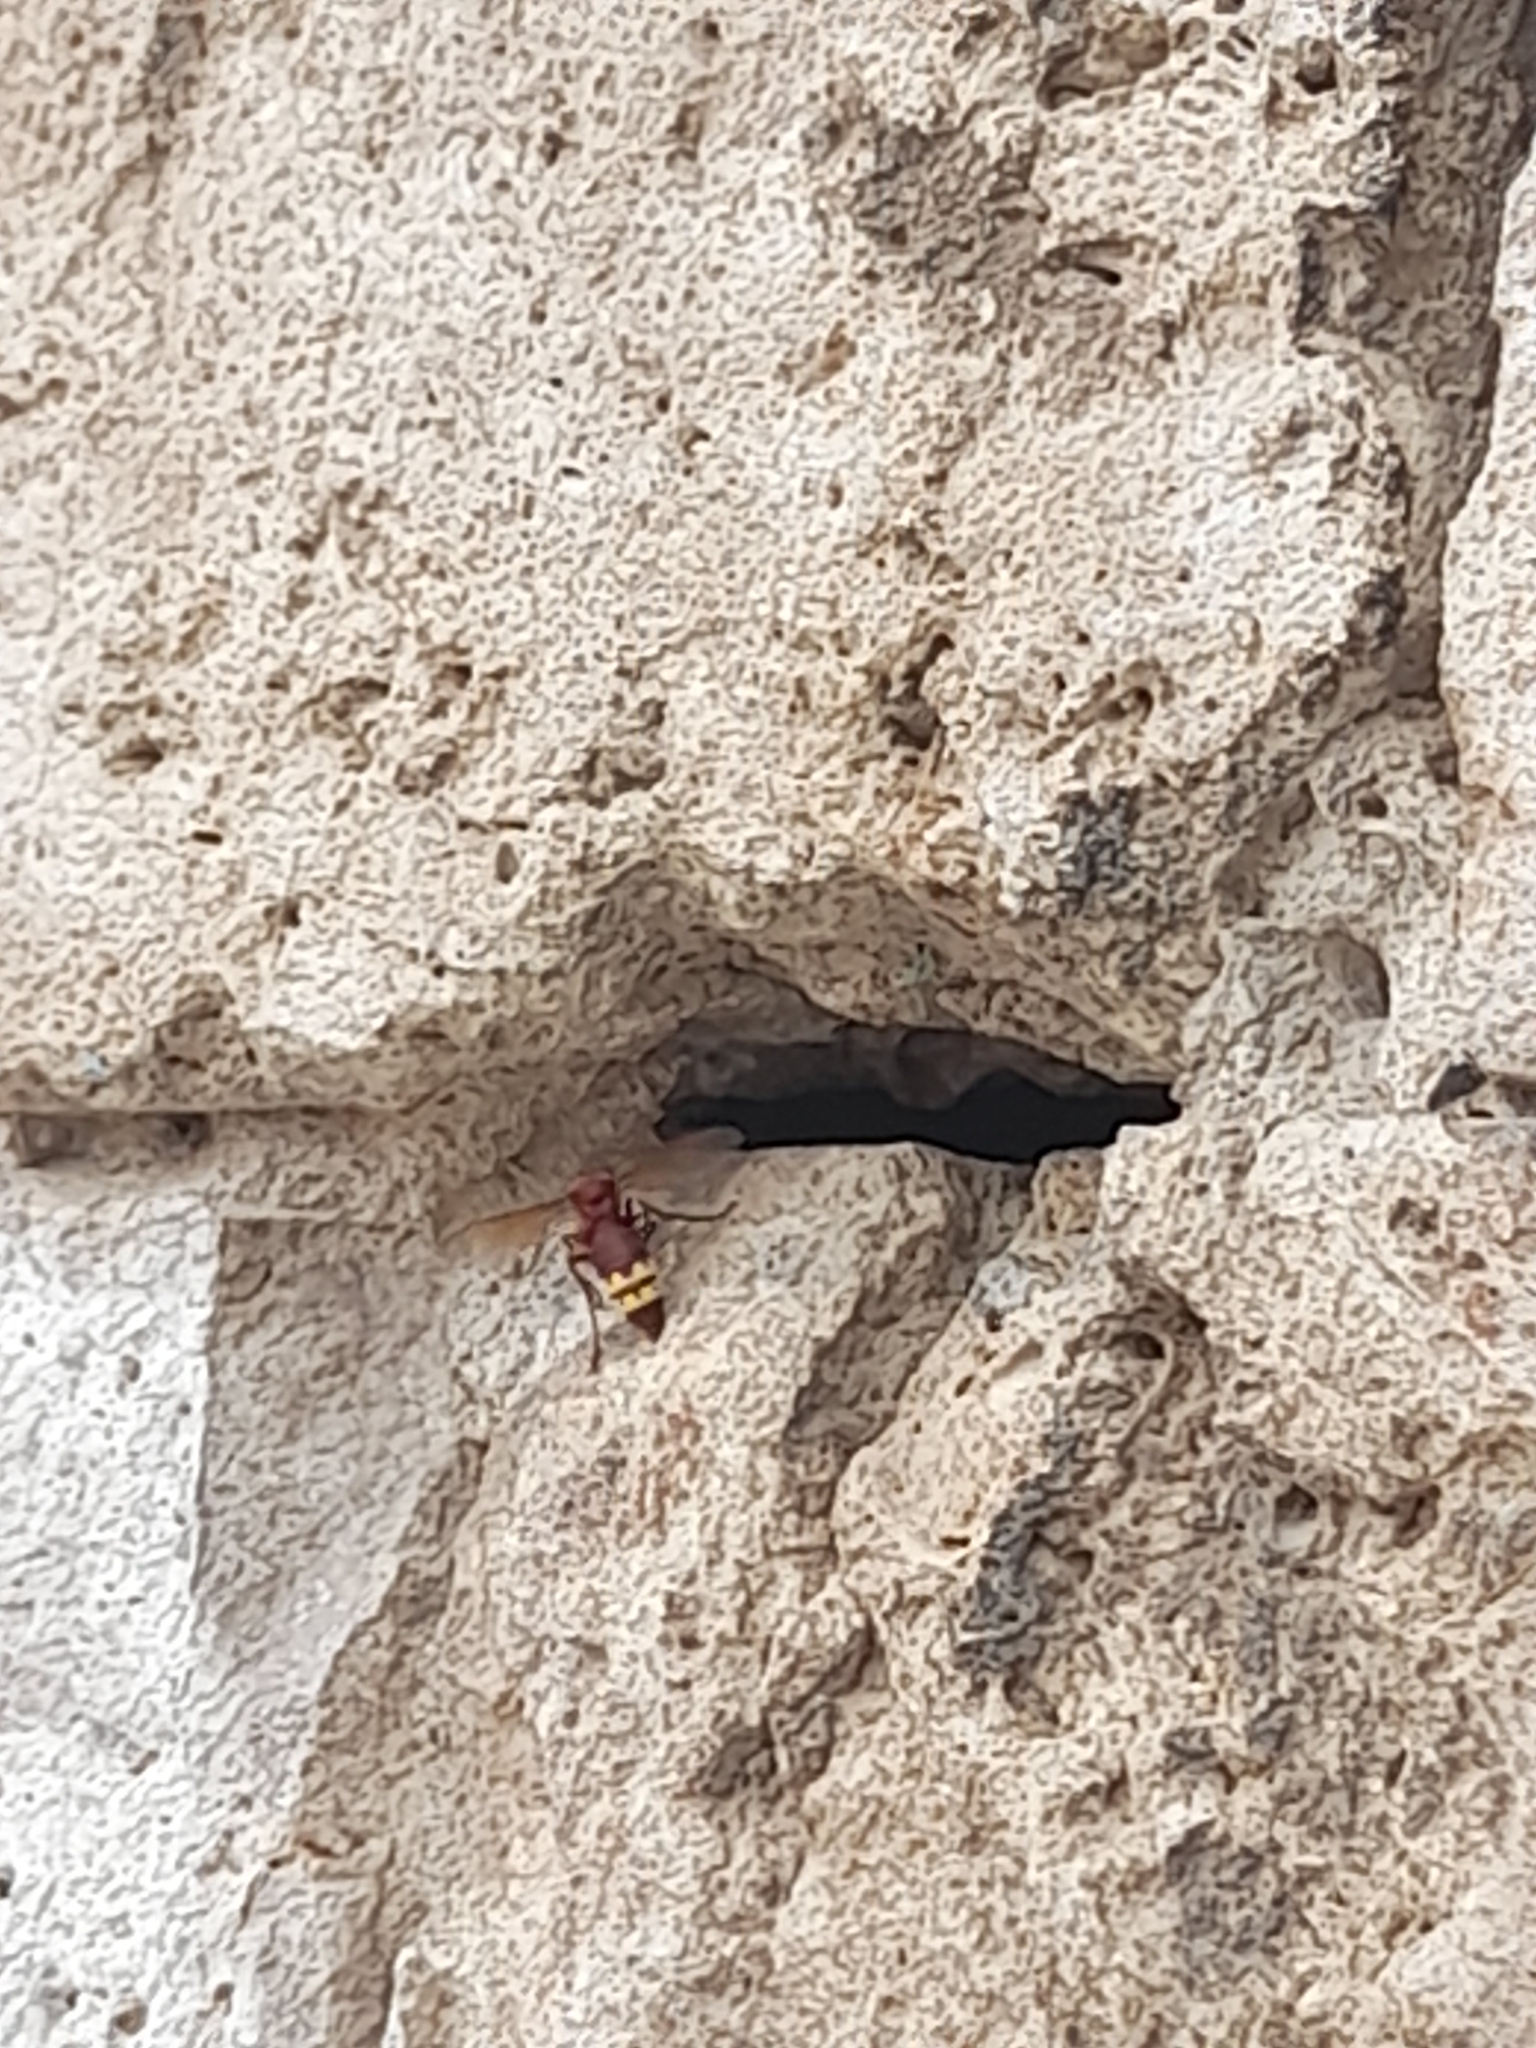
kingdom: Animalia
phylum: Arthropoda
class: Insecta
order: Hymenoptera
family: Vespidae
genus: Vespa
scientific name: Vespa orientalis
